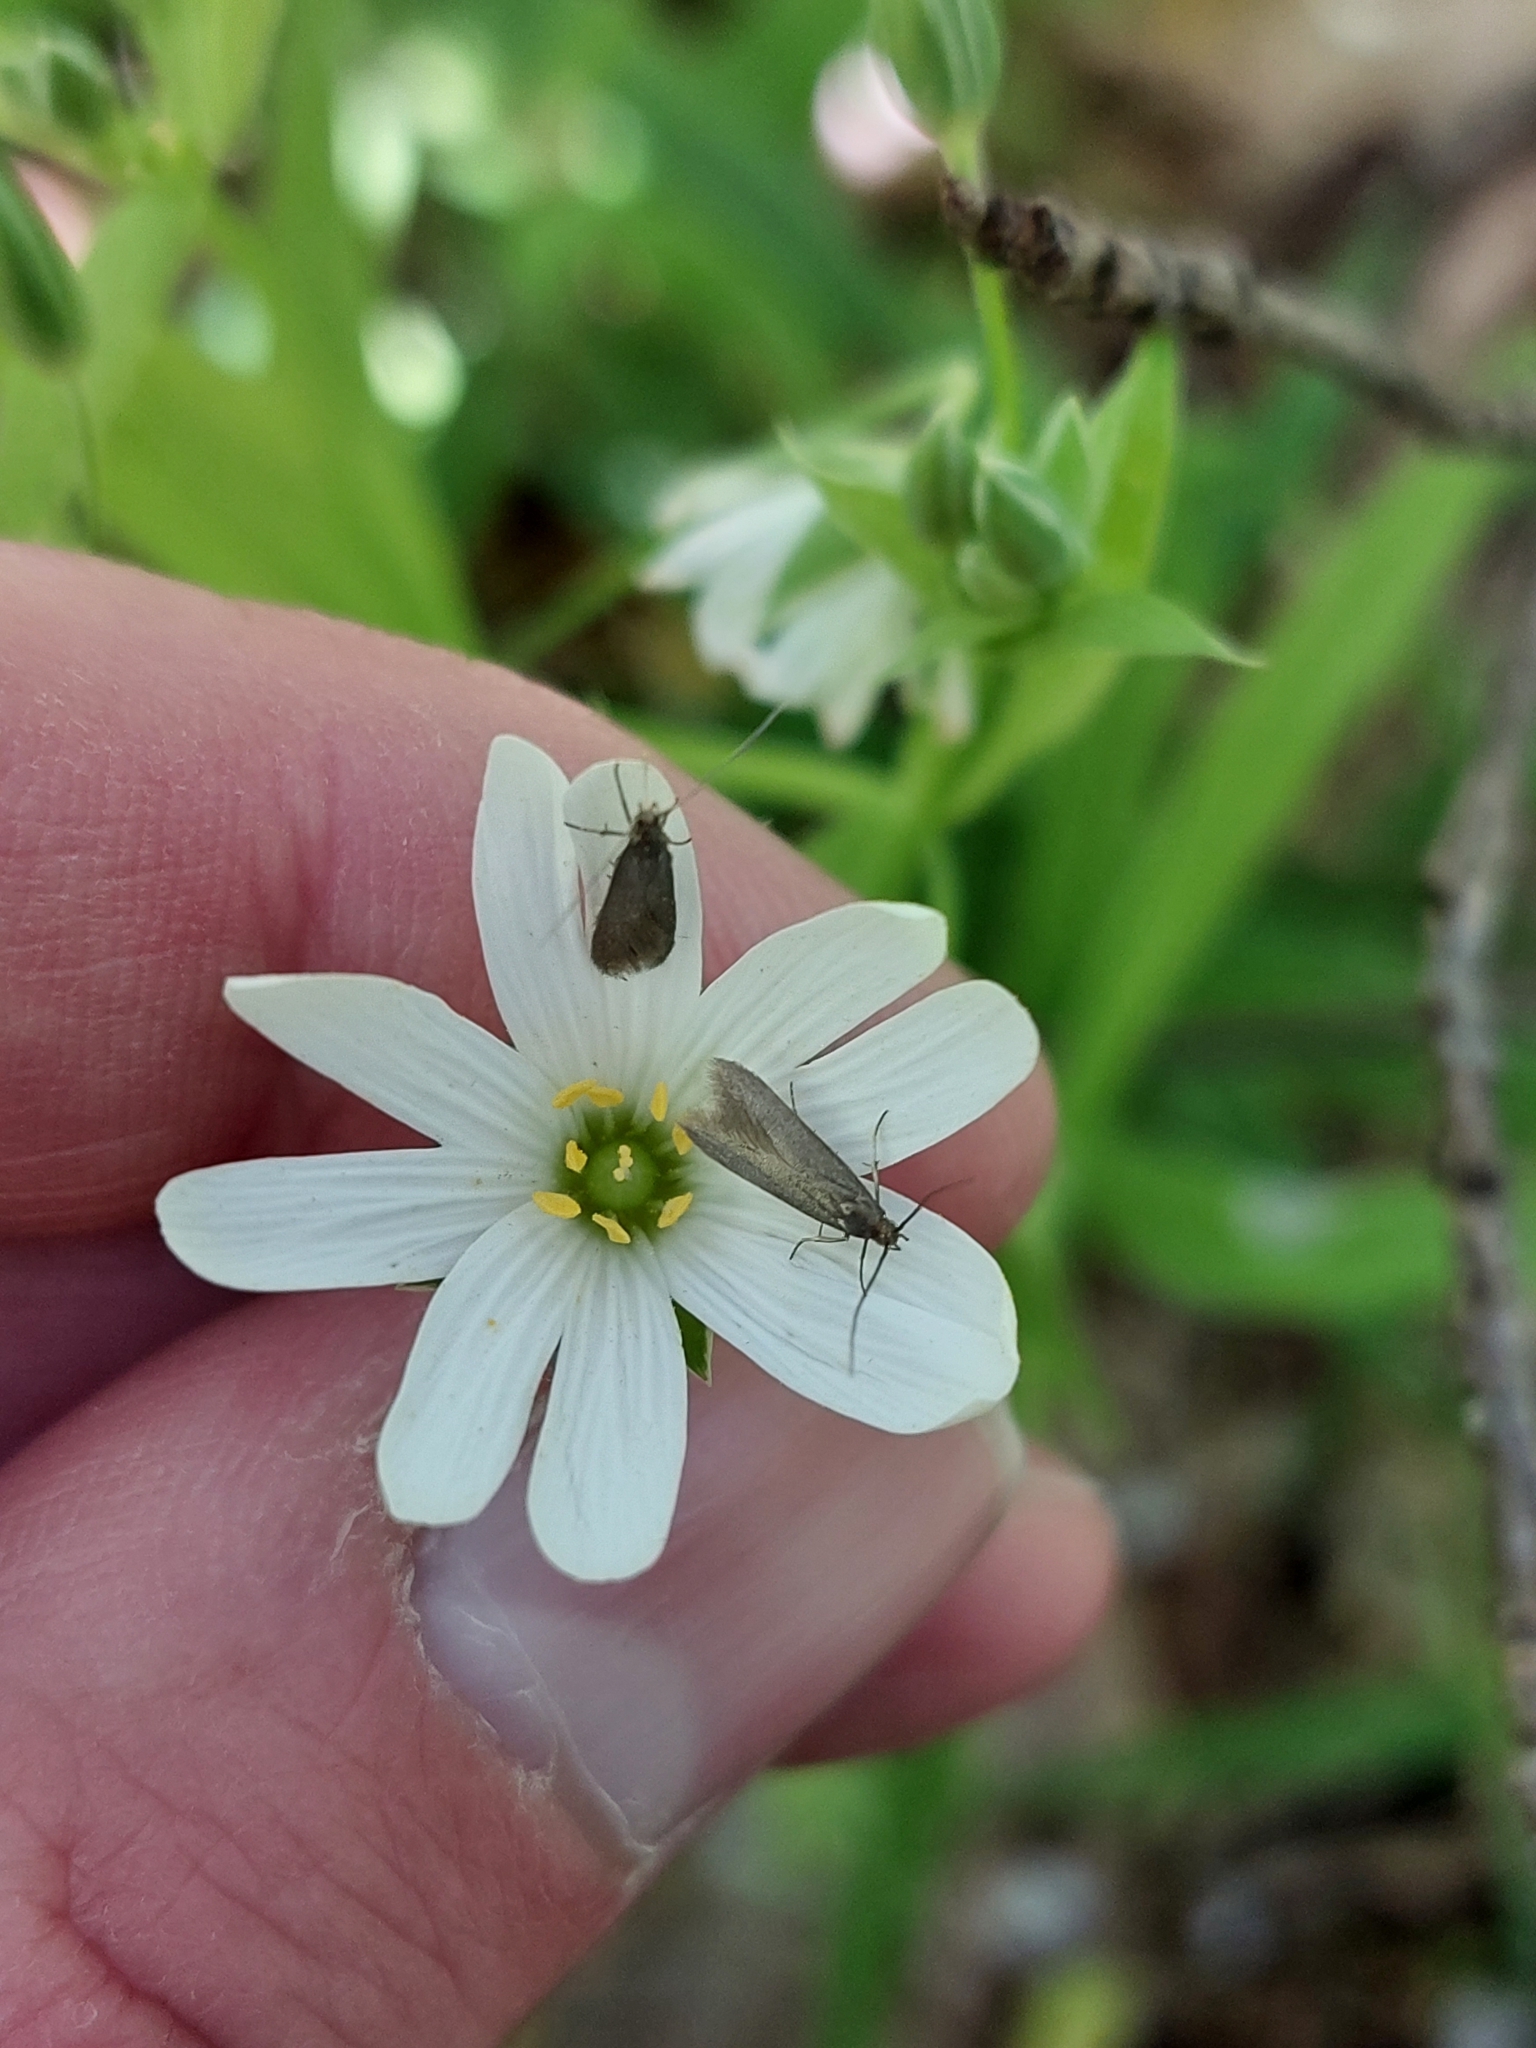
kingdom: Animalia
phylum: Arthropoda
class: Insecta
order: Lepidoptera
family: Coleophoridae
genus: Metriotes
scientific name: Metriotes lutarea
